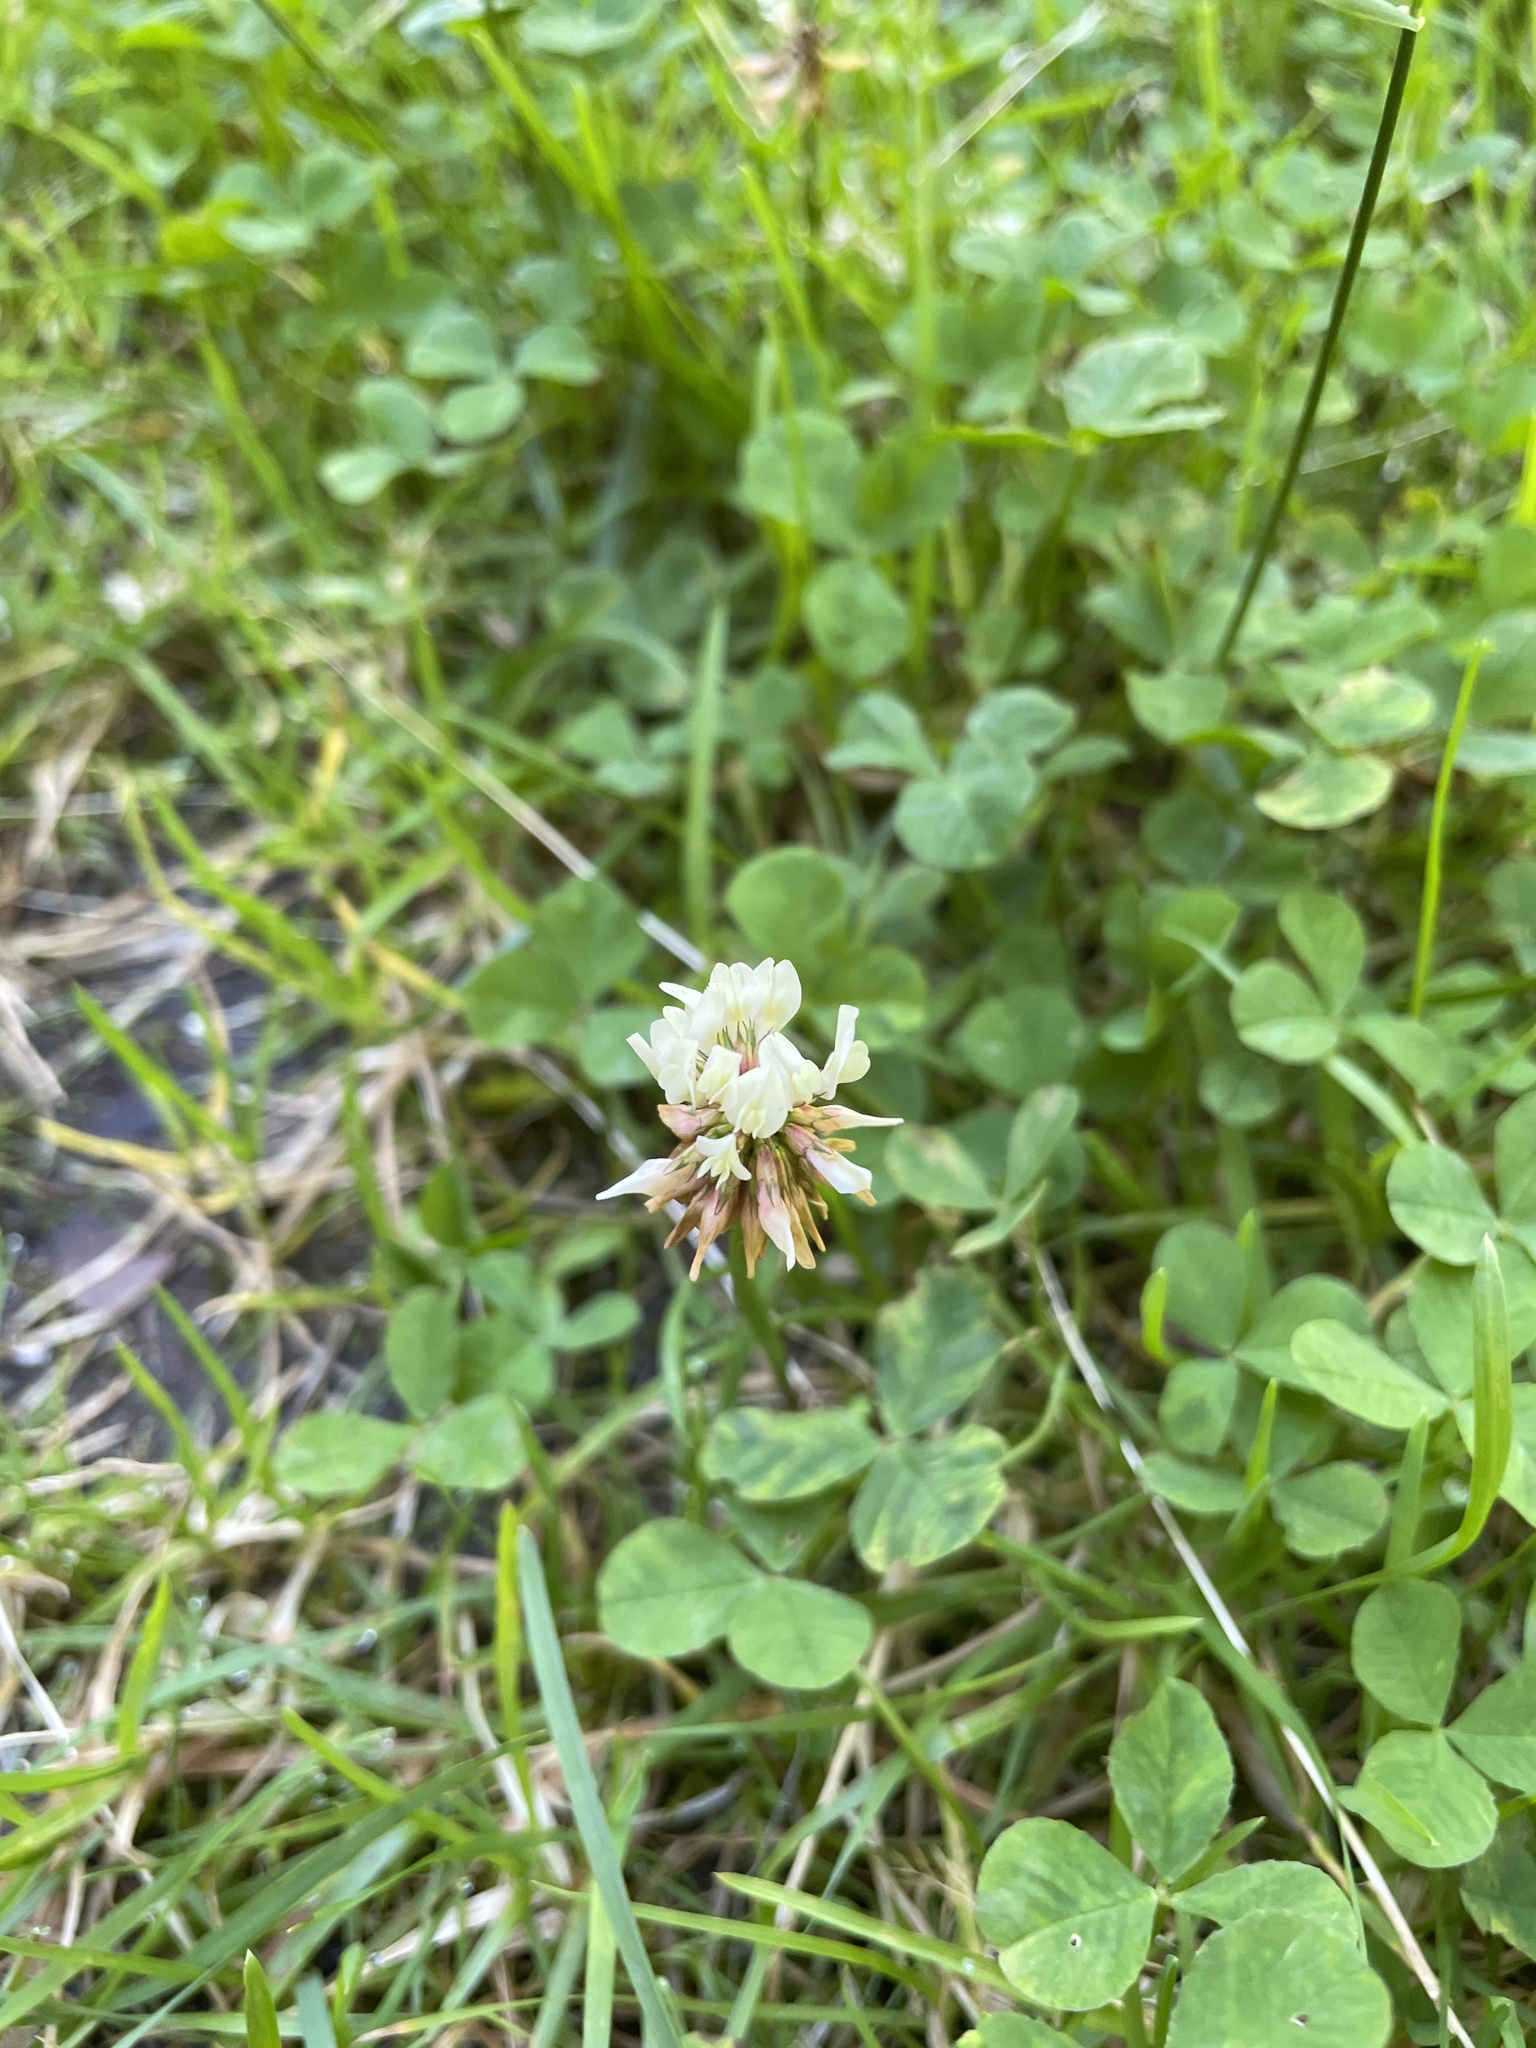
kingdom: Plantae
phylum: Tracheophyta
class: Magnoliopsida
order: Fabales
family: Fabaceae
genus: Trifolium
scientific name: Trifolium repens
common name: White clover
